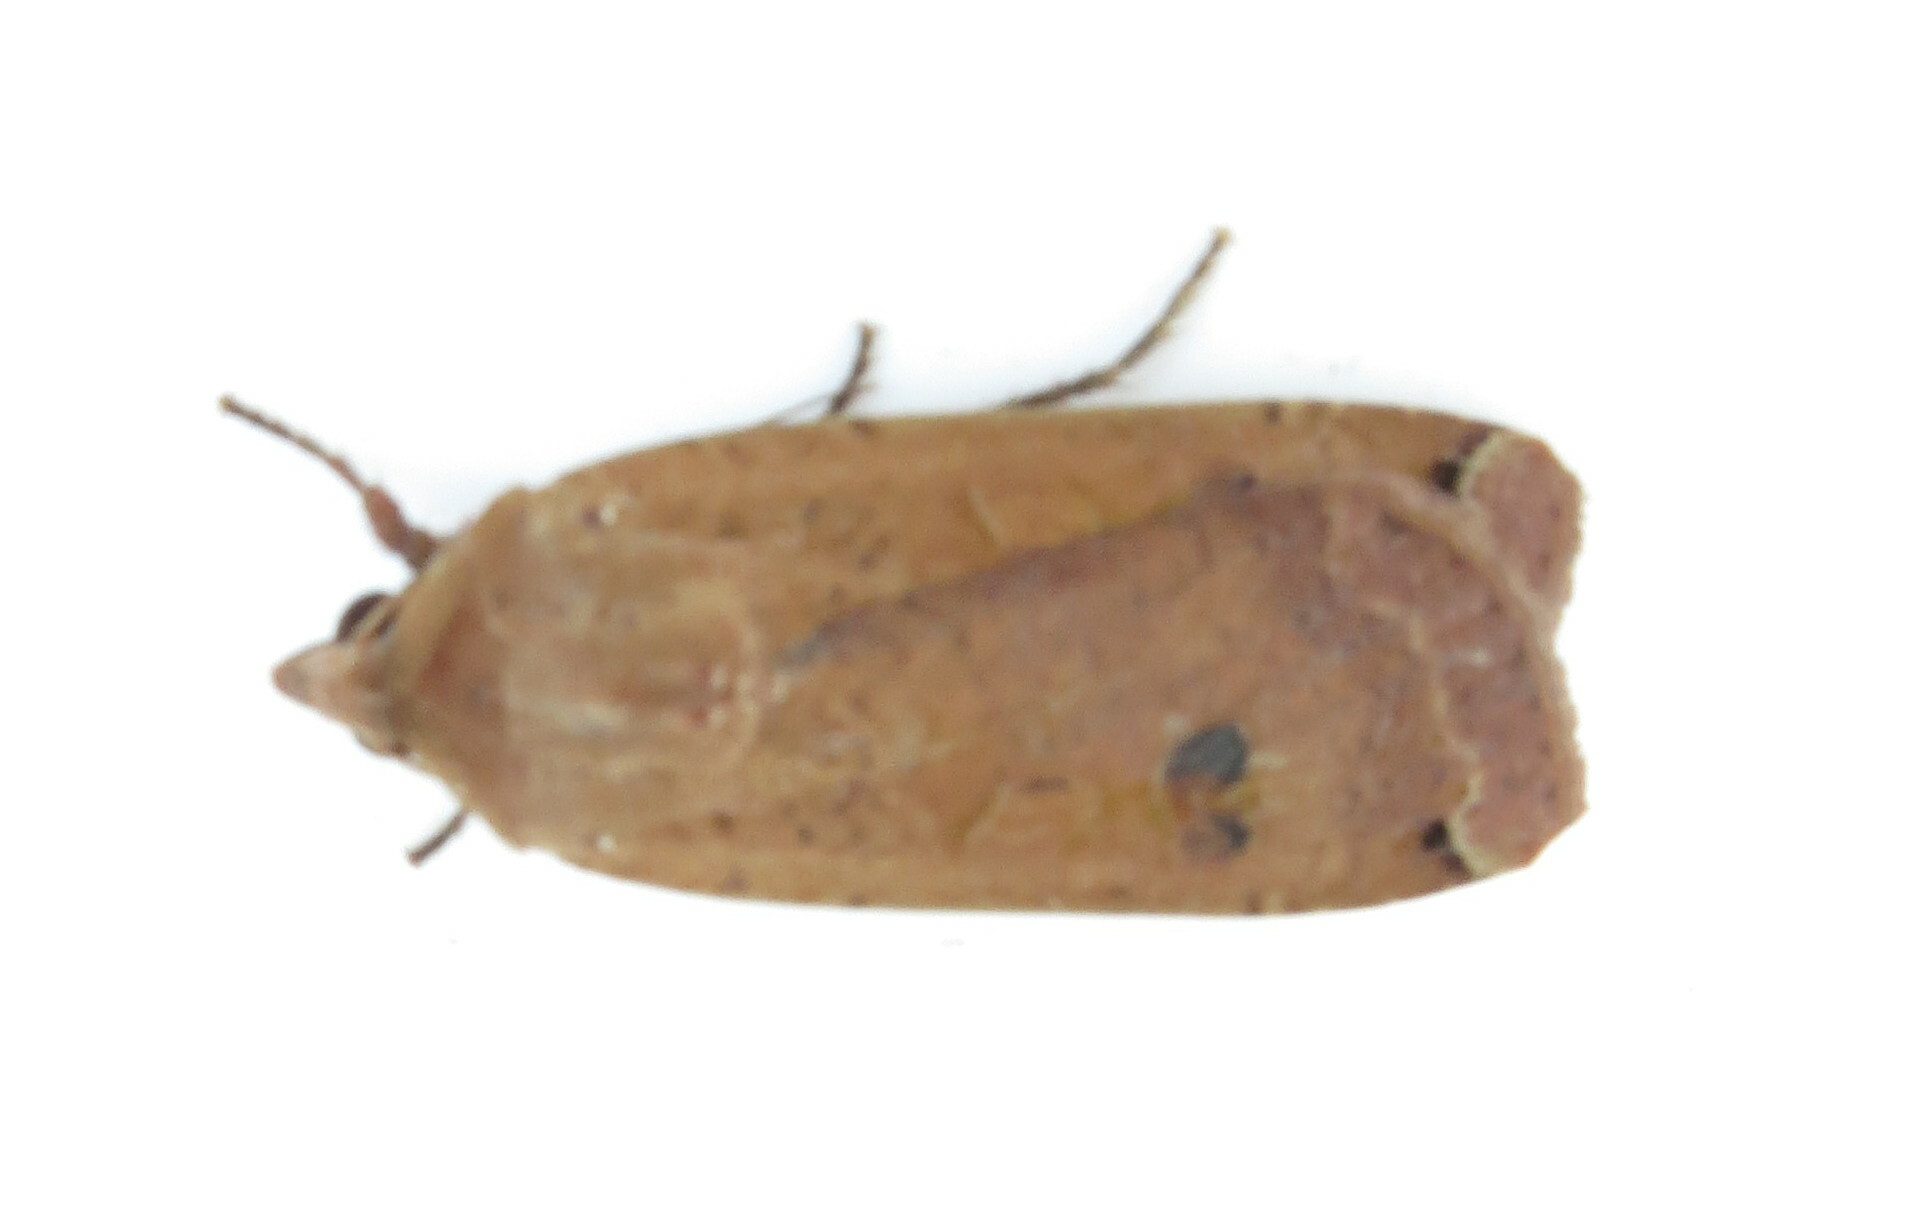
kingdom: Animalia
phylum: Arthropoda
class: Insecta
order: Lepidoptera
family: Noctuidae
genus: Noctua
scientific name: Noctua pronuba
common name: Large yellow underwing
